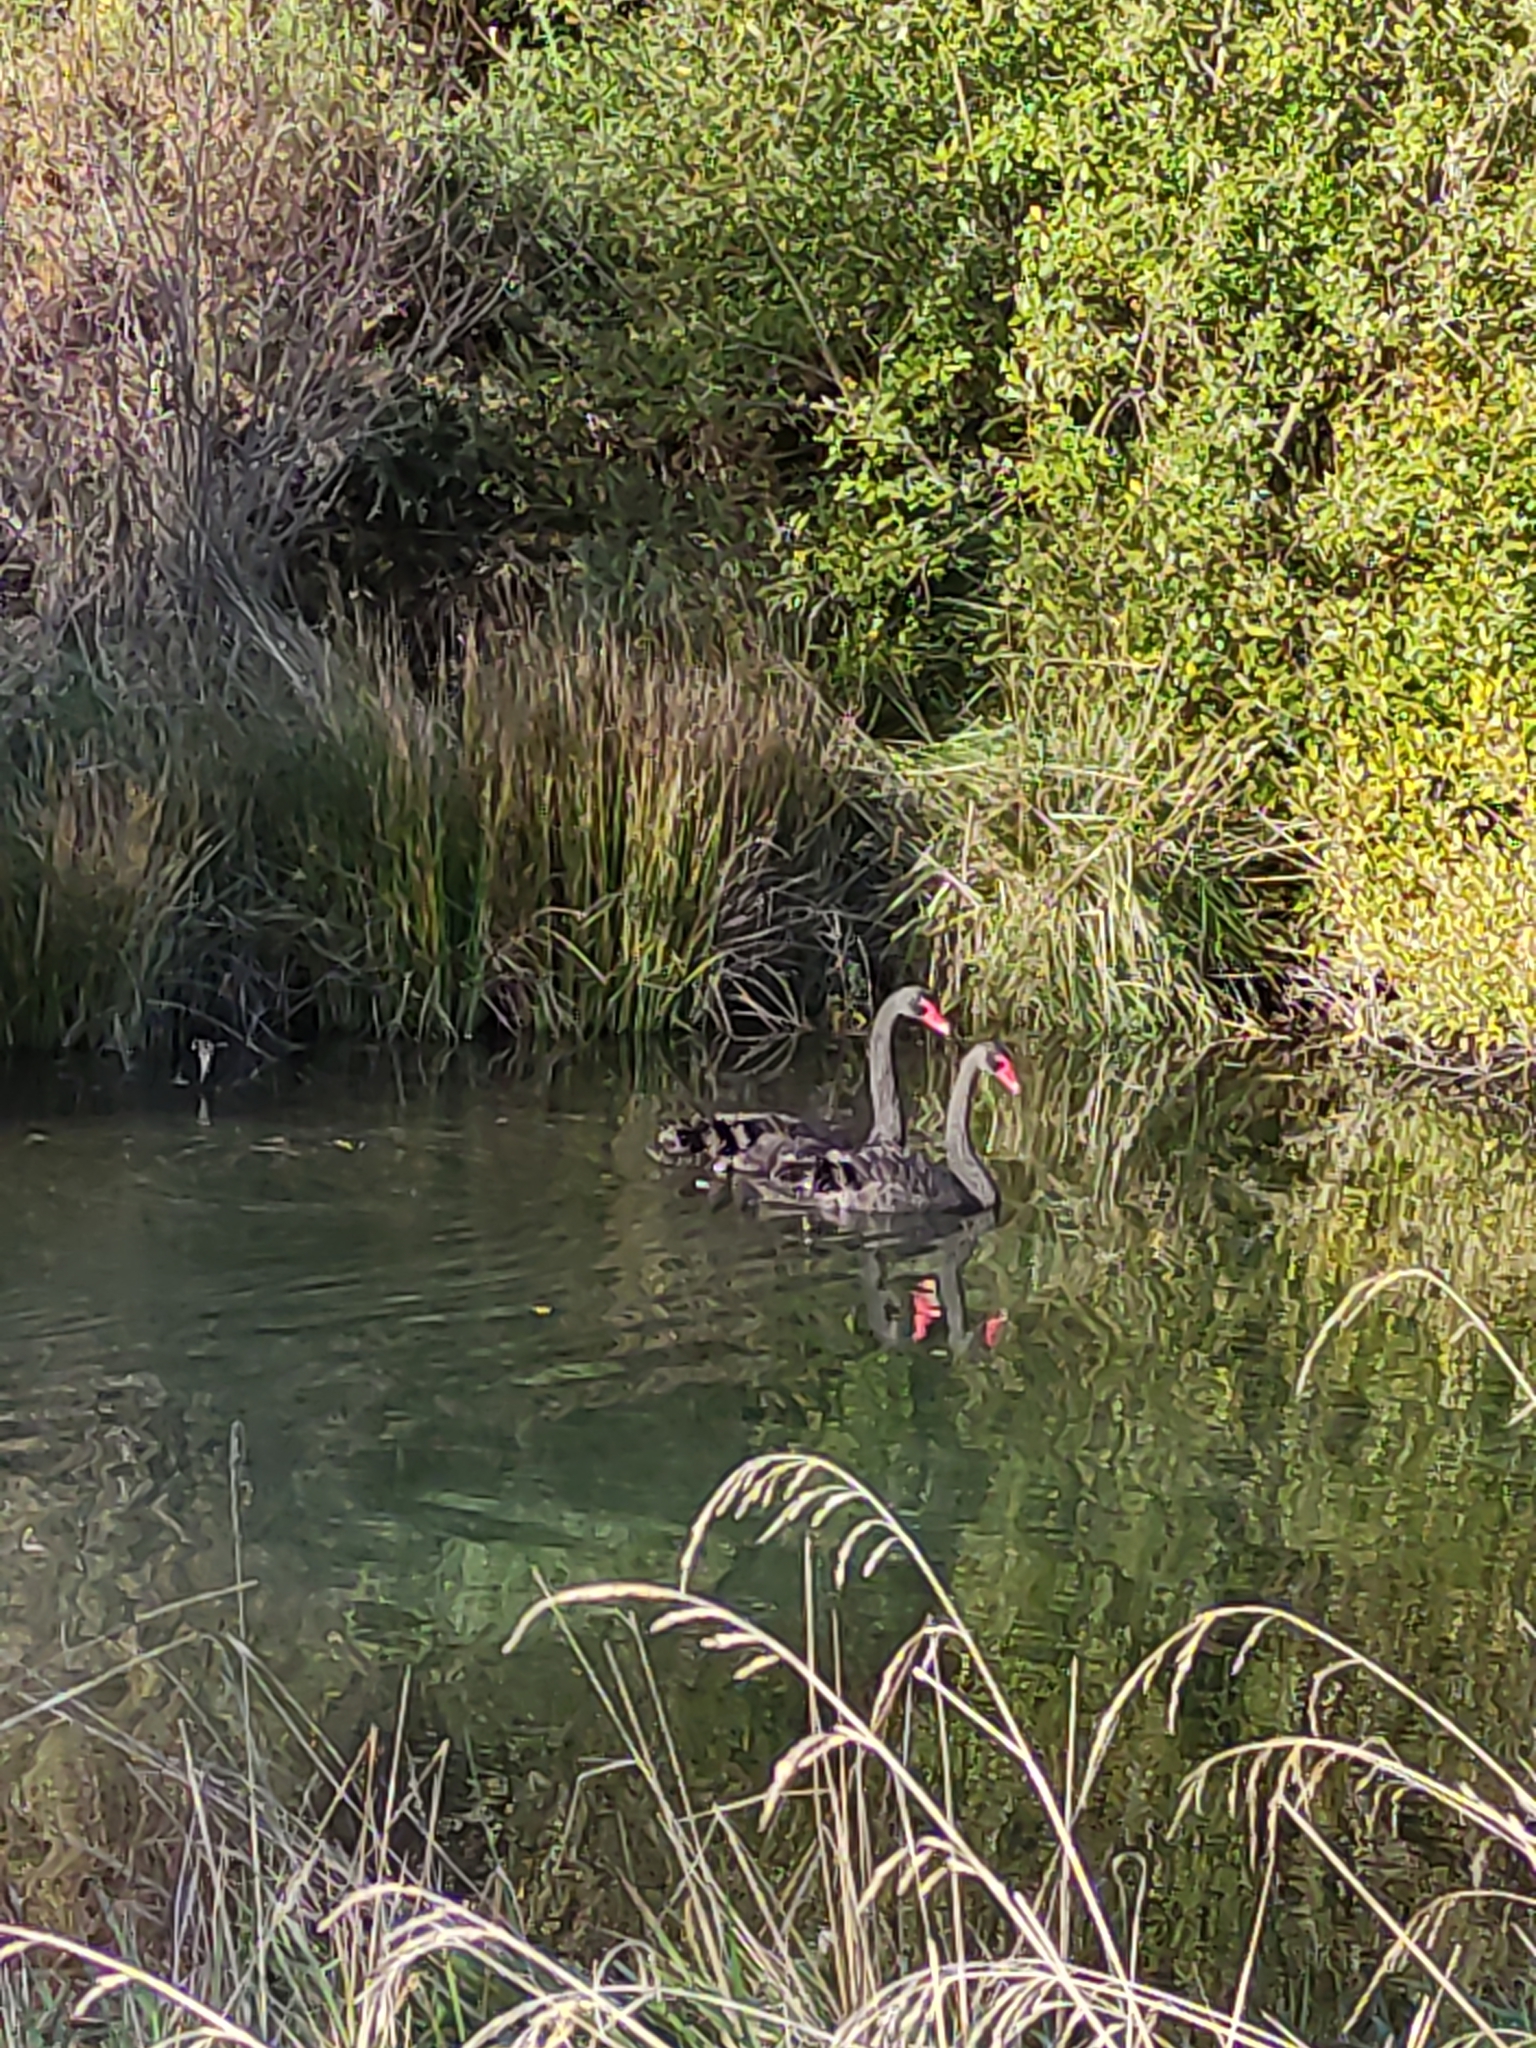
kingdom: Animalia
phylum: Chordata
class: Aves
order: Anseriformes
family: Anatidae
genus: Cygnus
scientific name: Cygnus atratus
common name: Black swan
